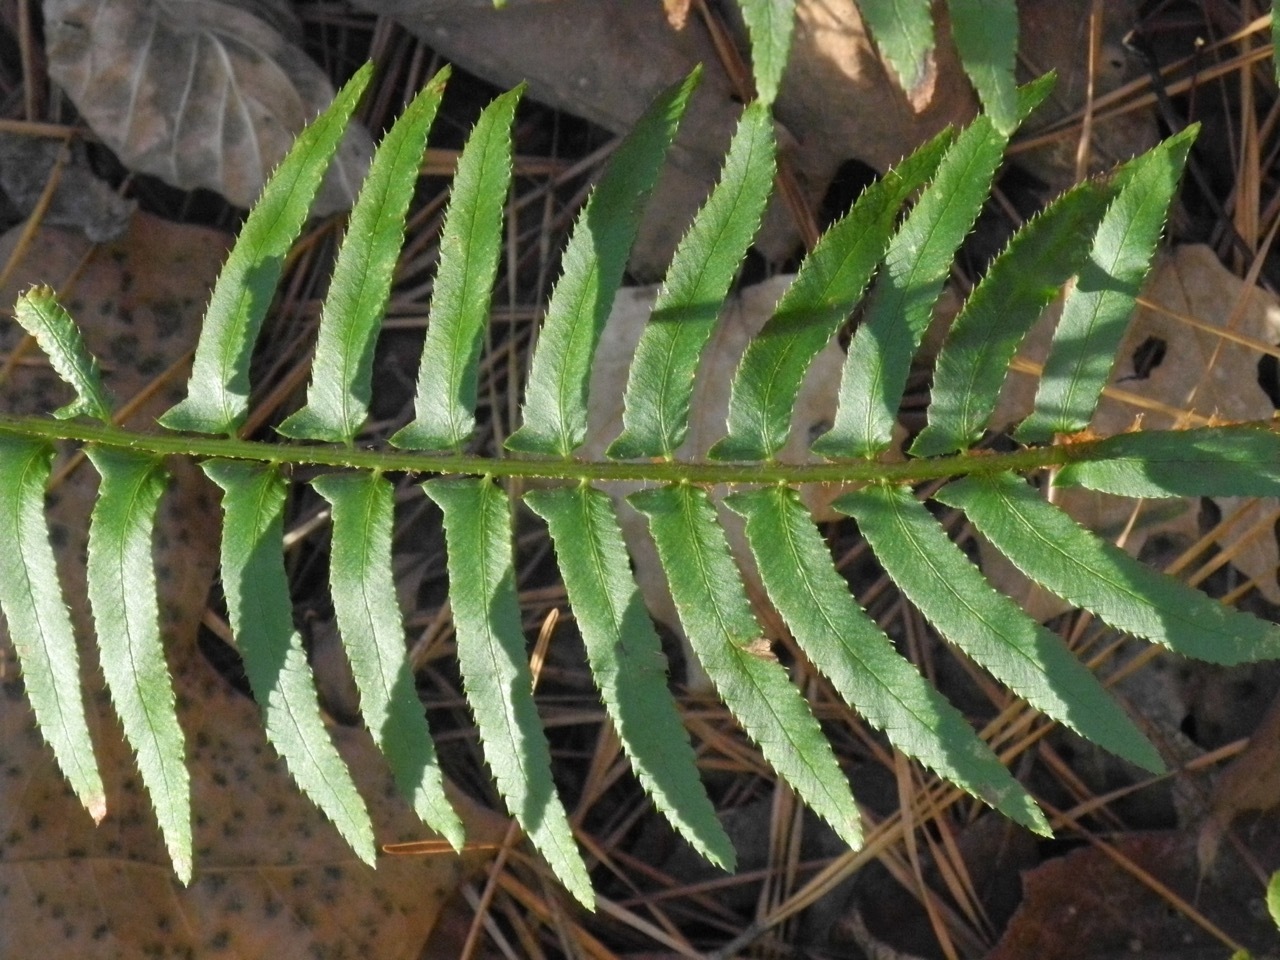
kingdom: Plantae
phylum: Tracheophyta
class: Polypodiopsida
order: Polypodiales
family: Dryopteridaceae
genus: Polystichum
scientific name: Polystichum acrostichoides
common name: Christmas fern
